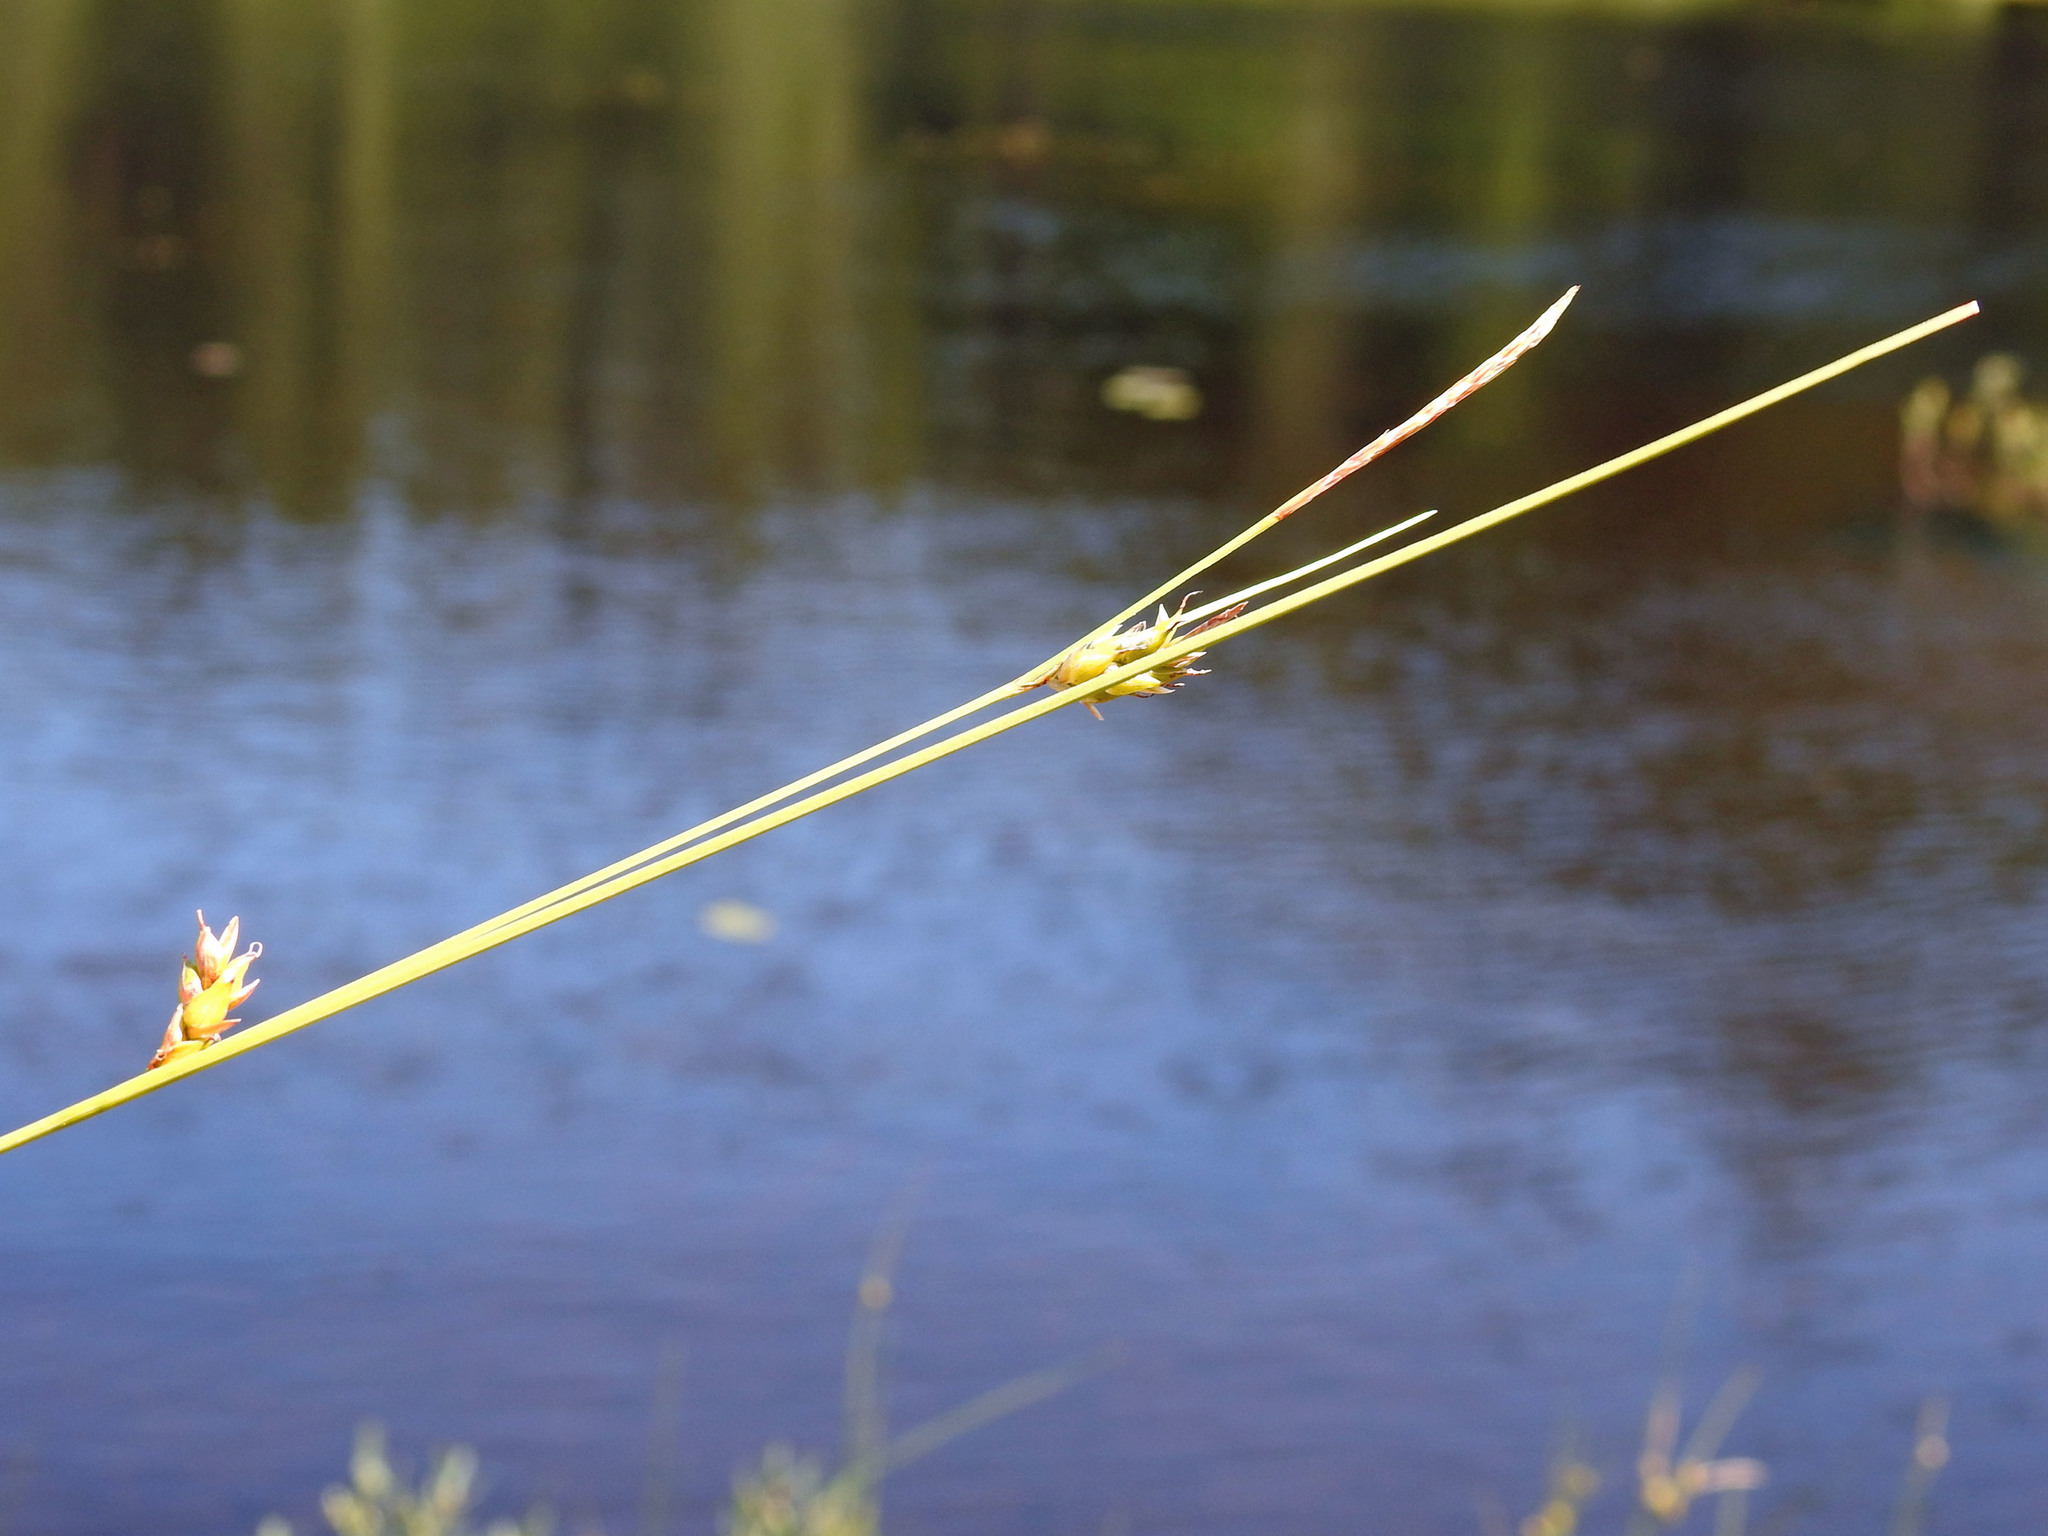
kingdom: Plantae
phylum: Tracheophyta
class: Liliopsida
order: Poales
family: Cyperaceae
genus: Carex
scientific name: Carex oligosperma
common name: Few-seed sedge
